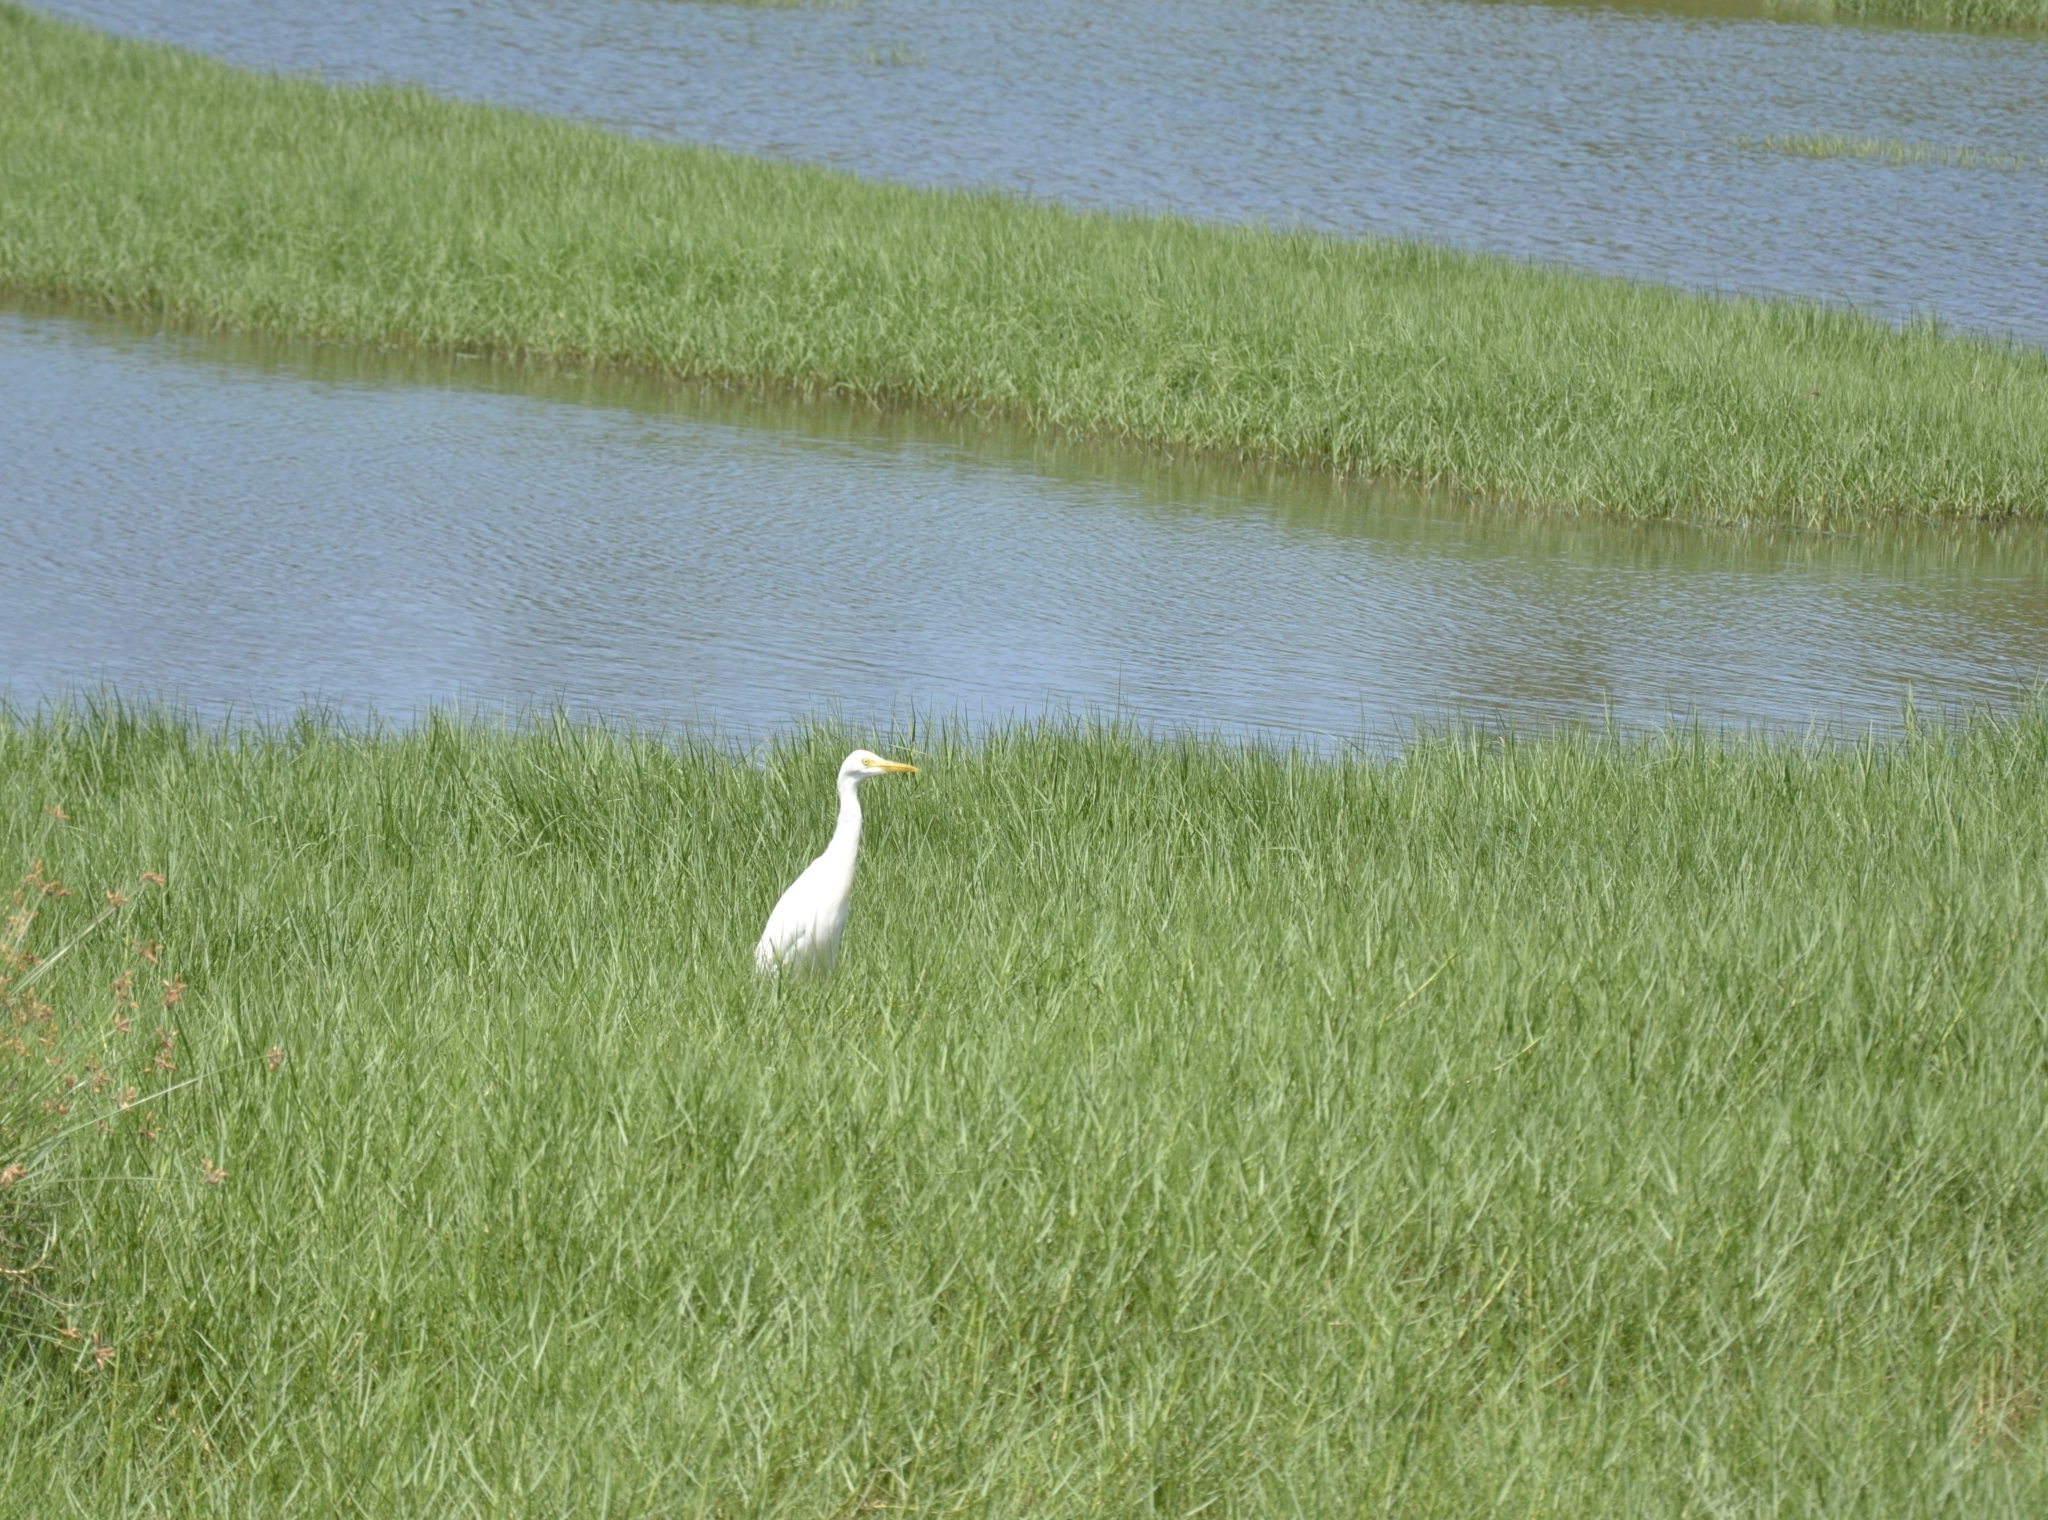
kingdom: Animalia
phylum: Chordata
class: Aves
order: Pelecaniformes
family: Ardeidae
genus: Bubulcus
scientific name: Bubulcus coromandus
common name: Eastern cattle egret
